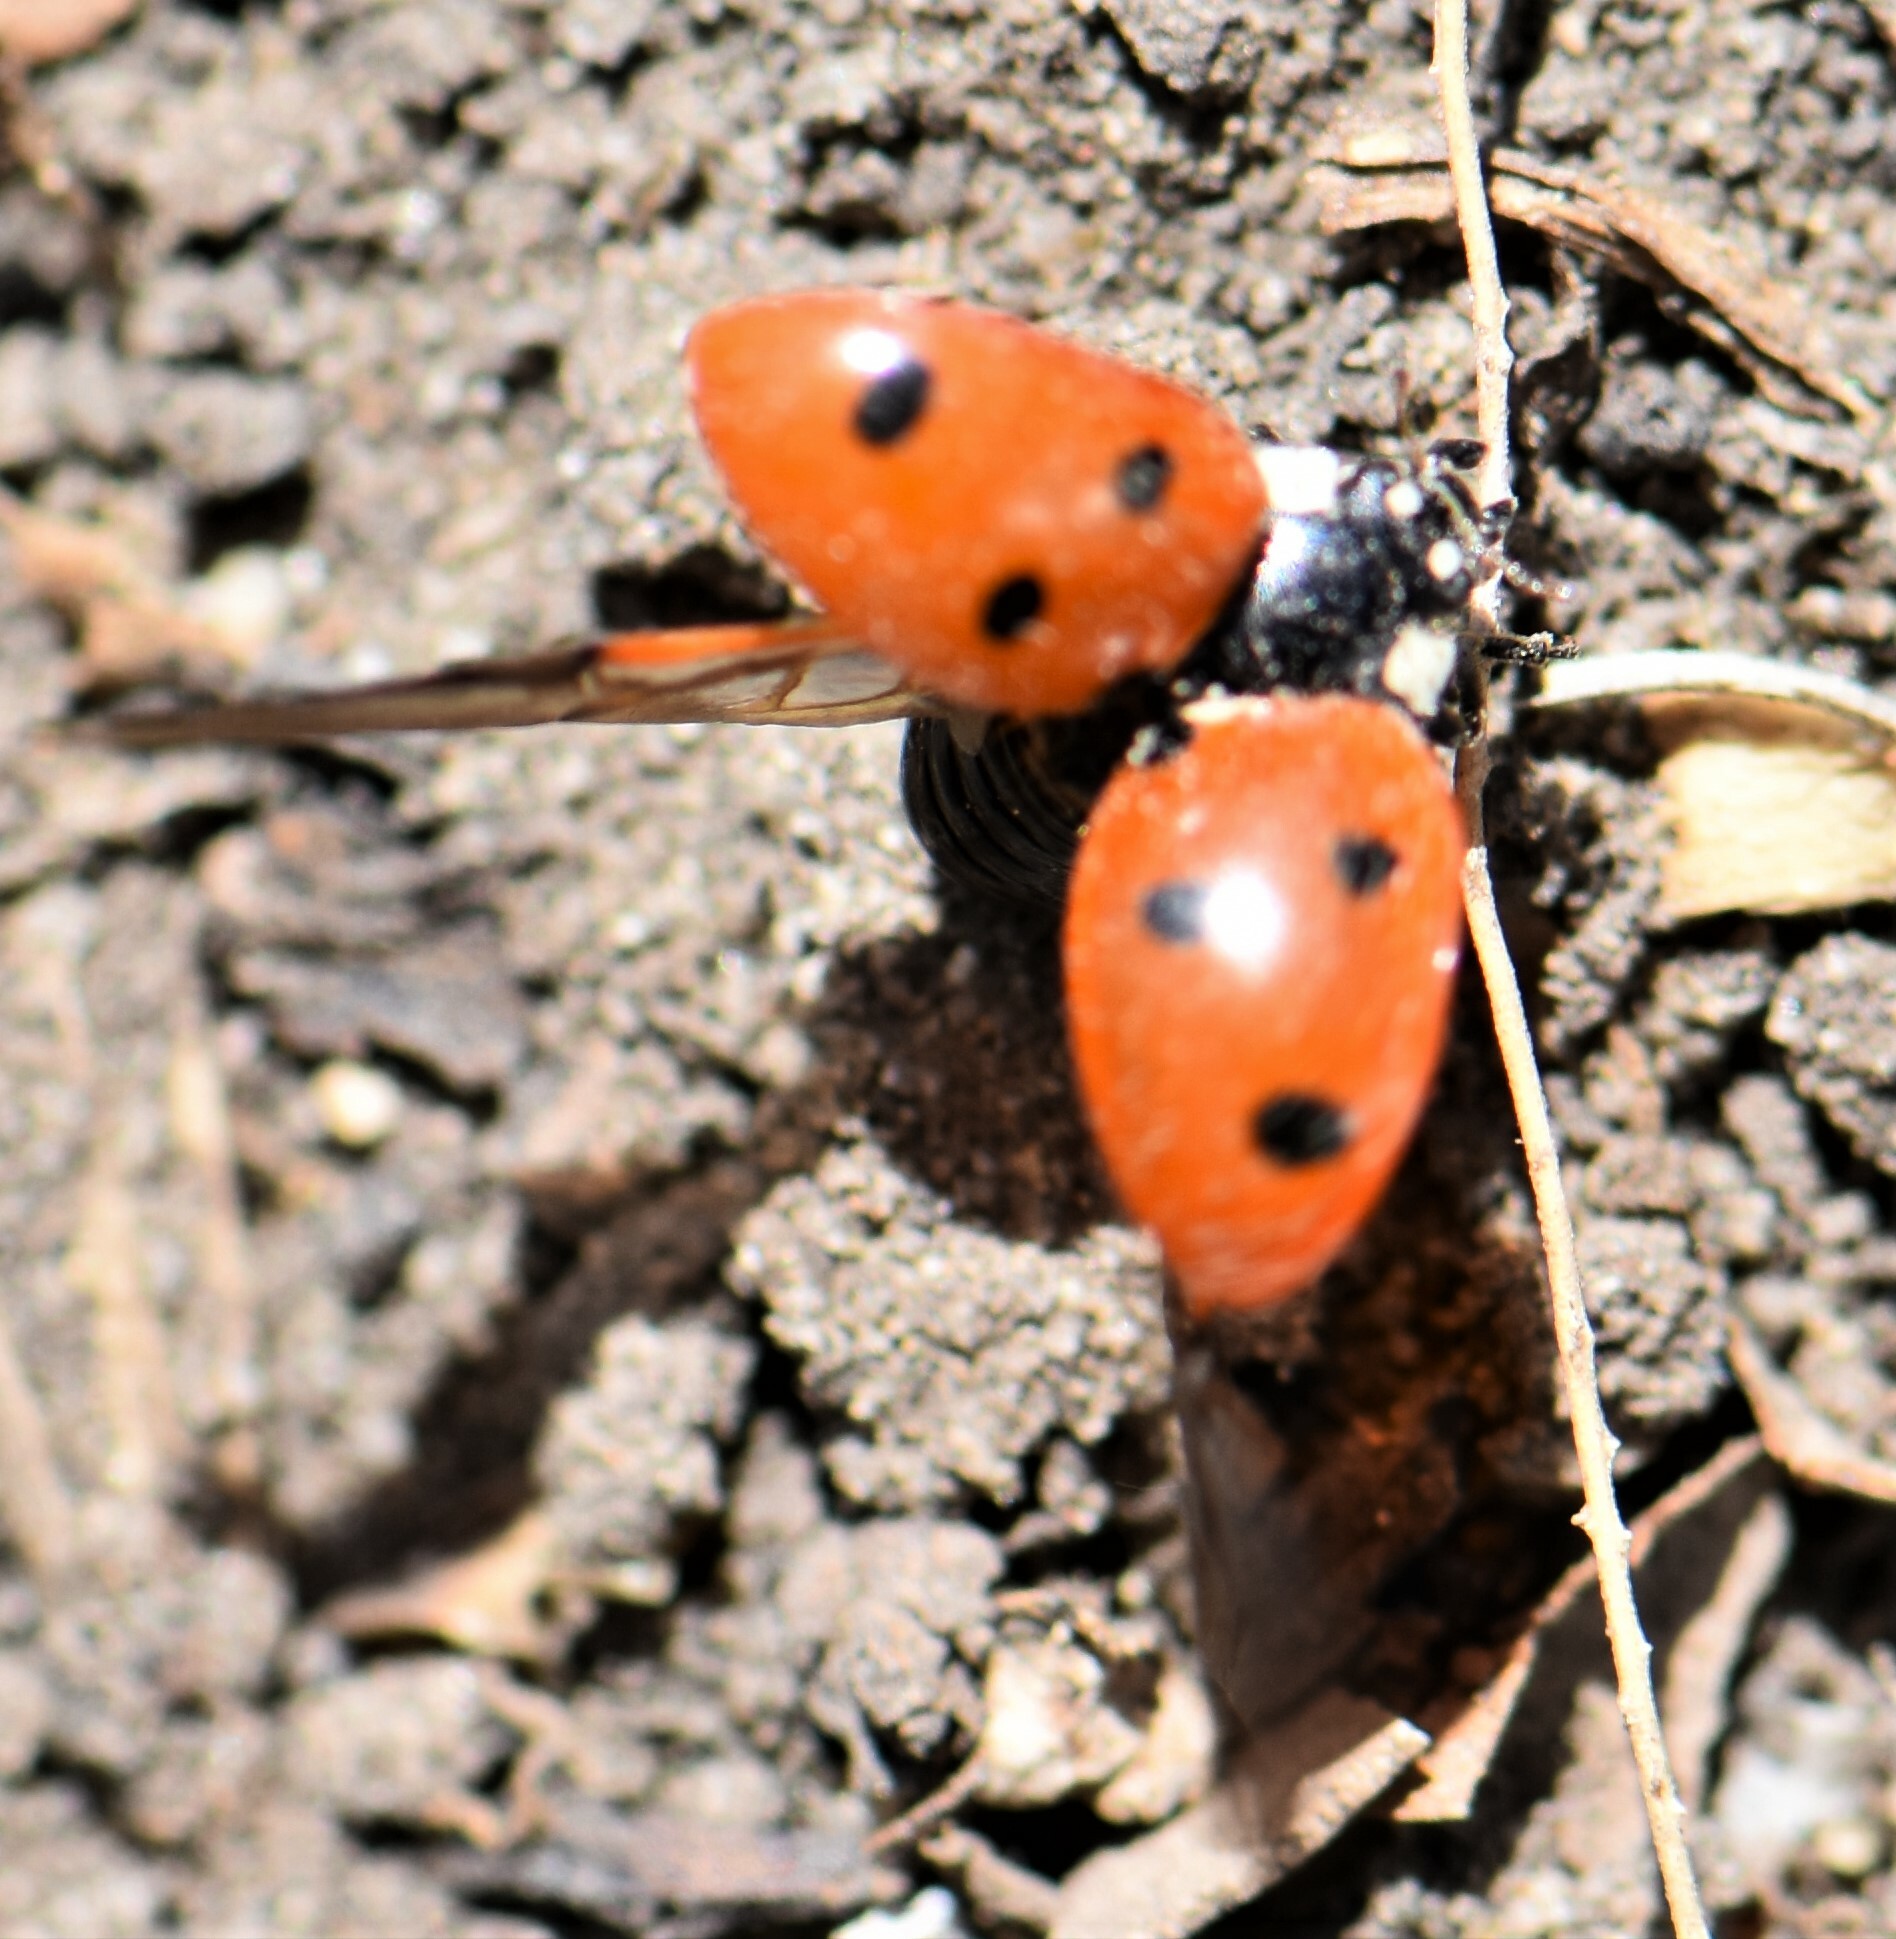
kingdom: Animalia
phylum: Arthropoda
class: Insecta
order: Coleoptera
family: Coccinellidae
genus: Coccinella
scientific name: Coccinella septempunctata
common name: Sevenspotted lady beetle
